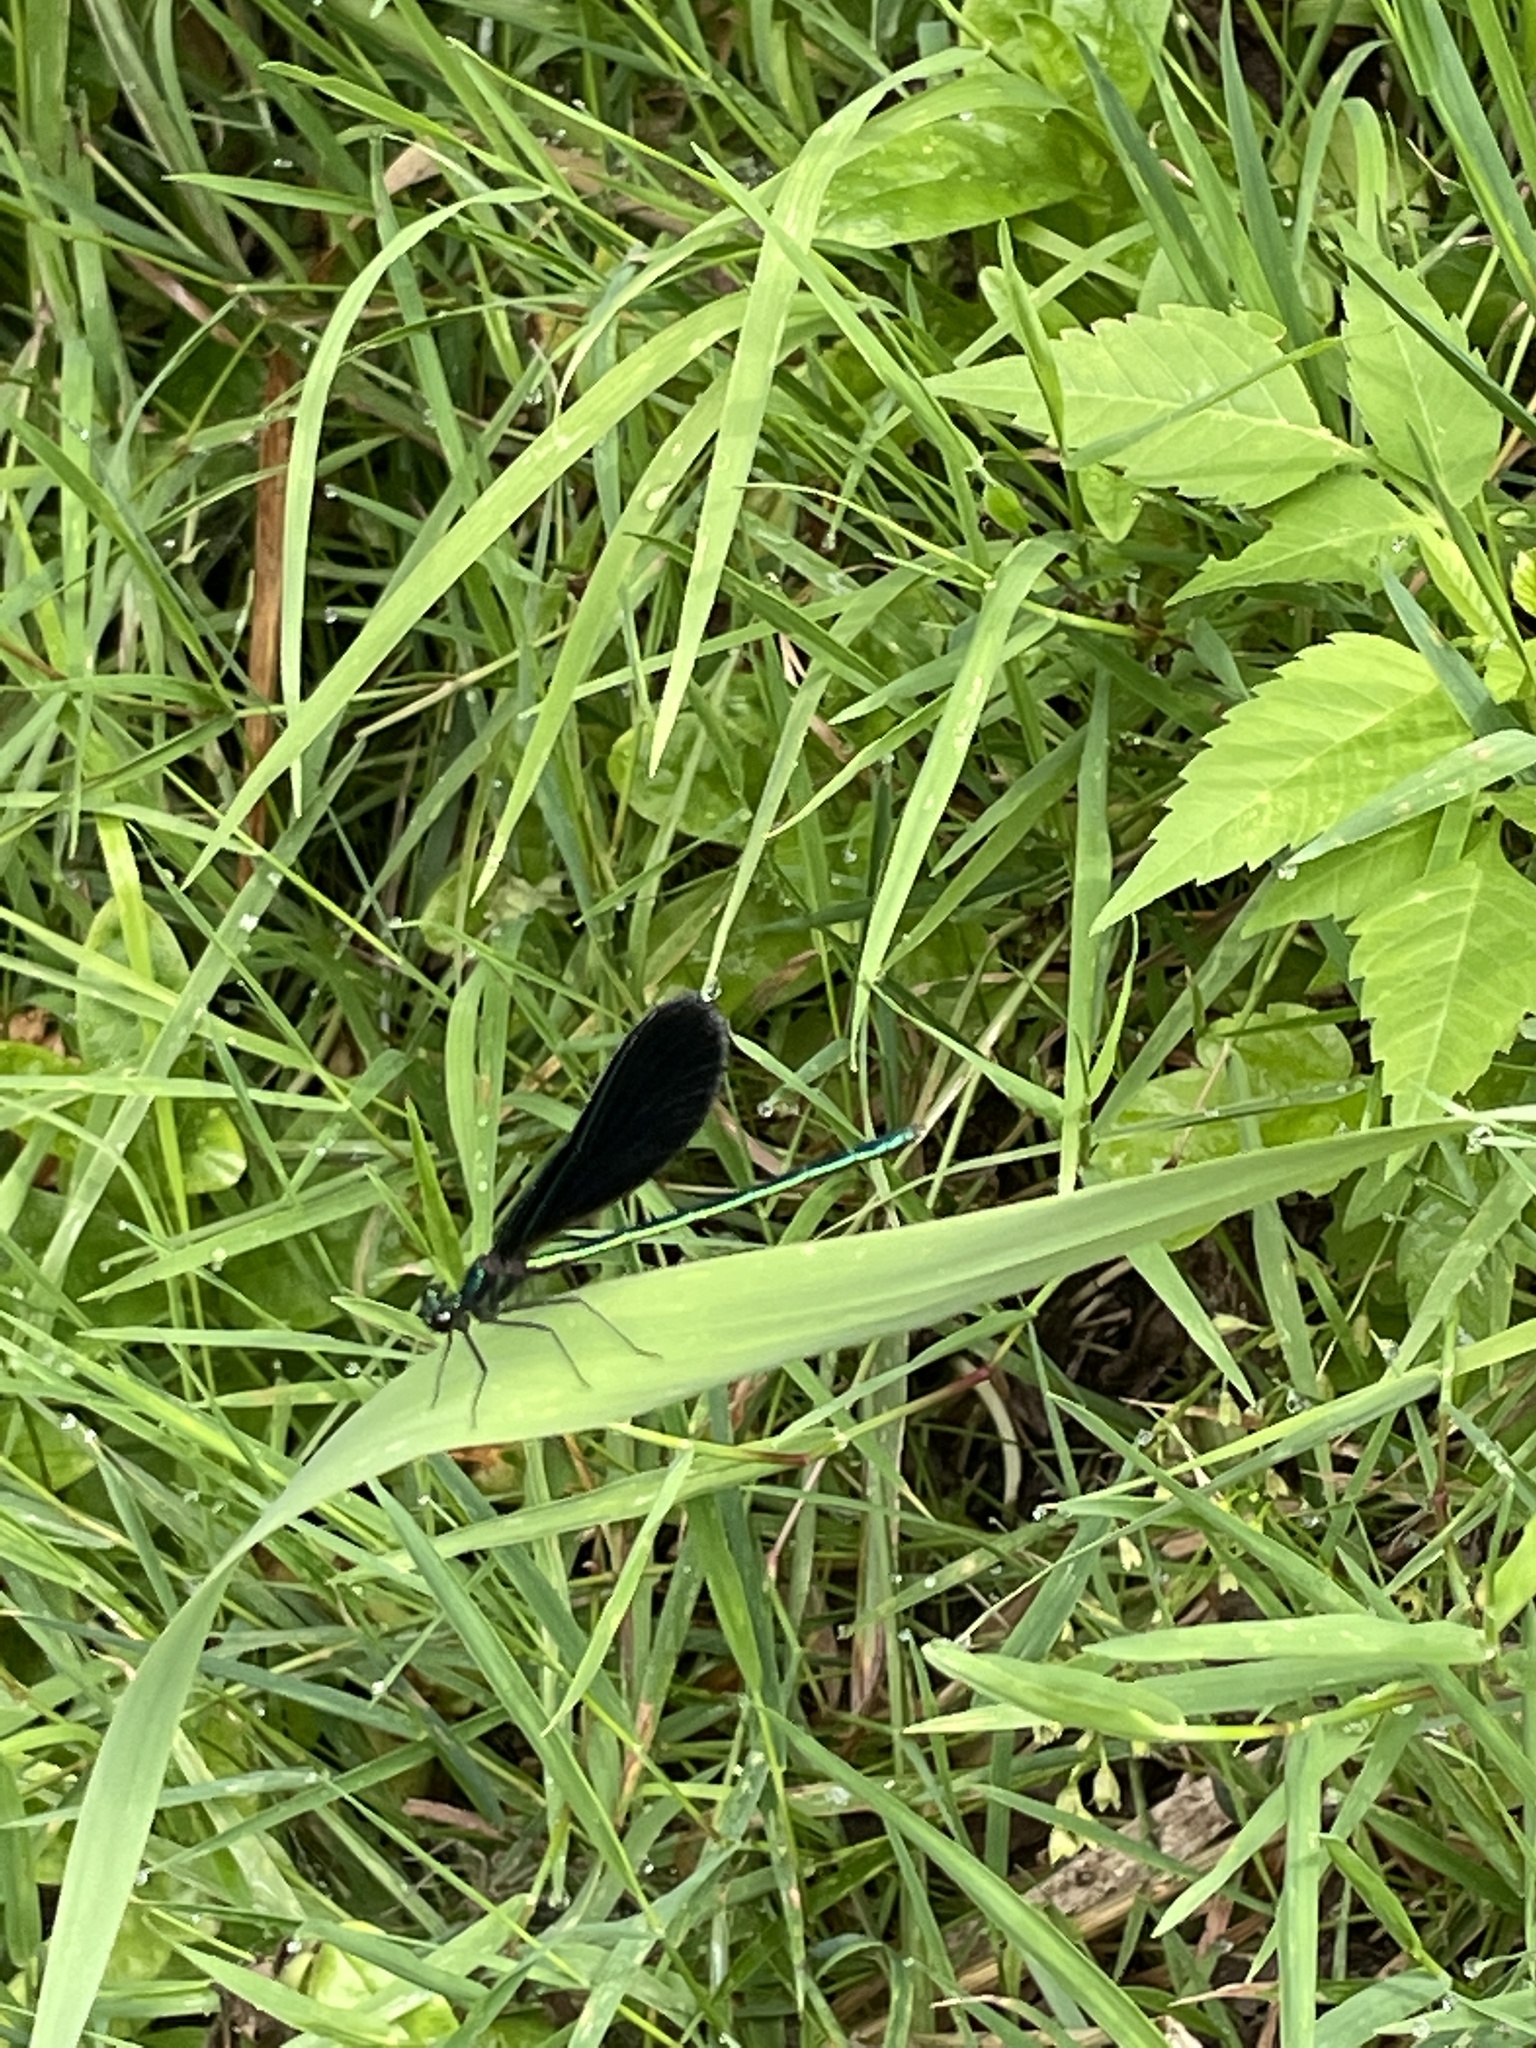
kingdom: Animalia
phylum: Arthropoda
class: Insecta
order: Odonata
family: Calopterygidae
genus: Calopteryx
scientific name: Calopteryx maculata
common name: Ebony jewelwing
